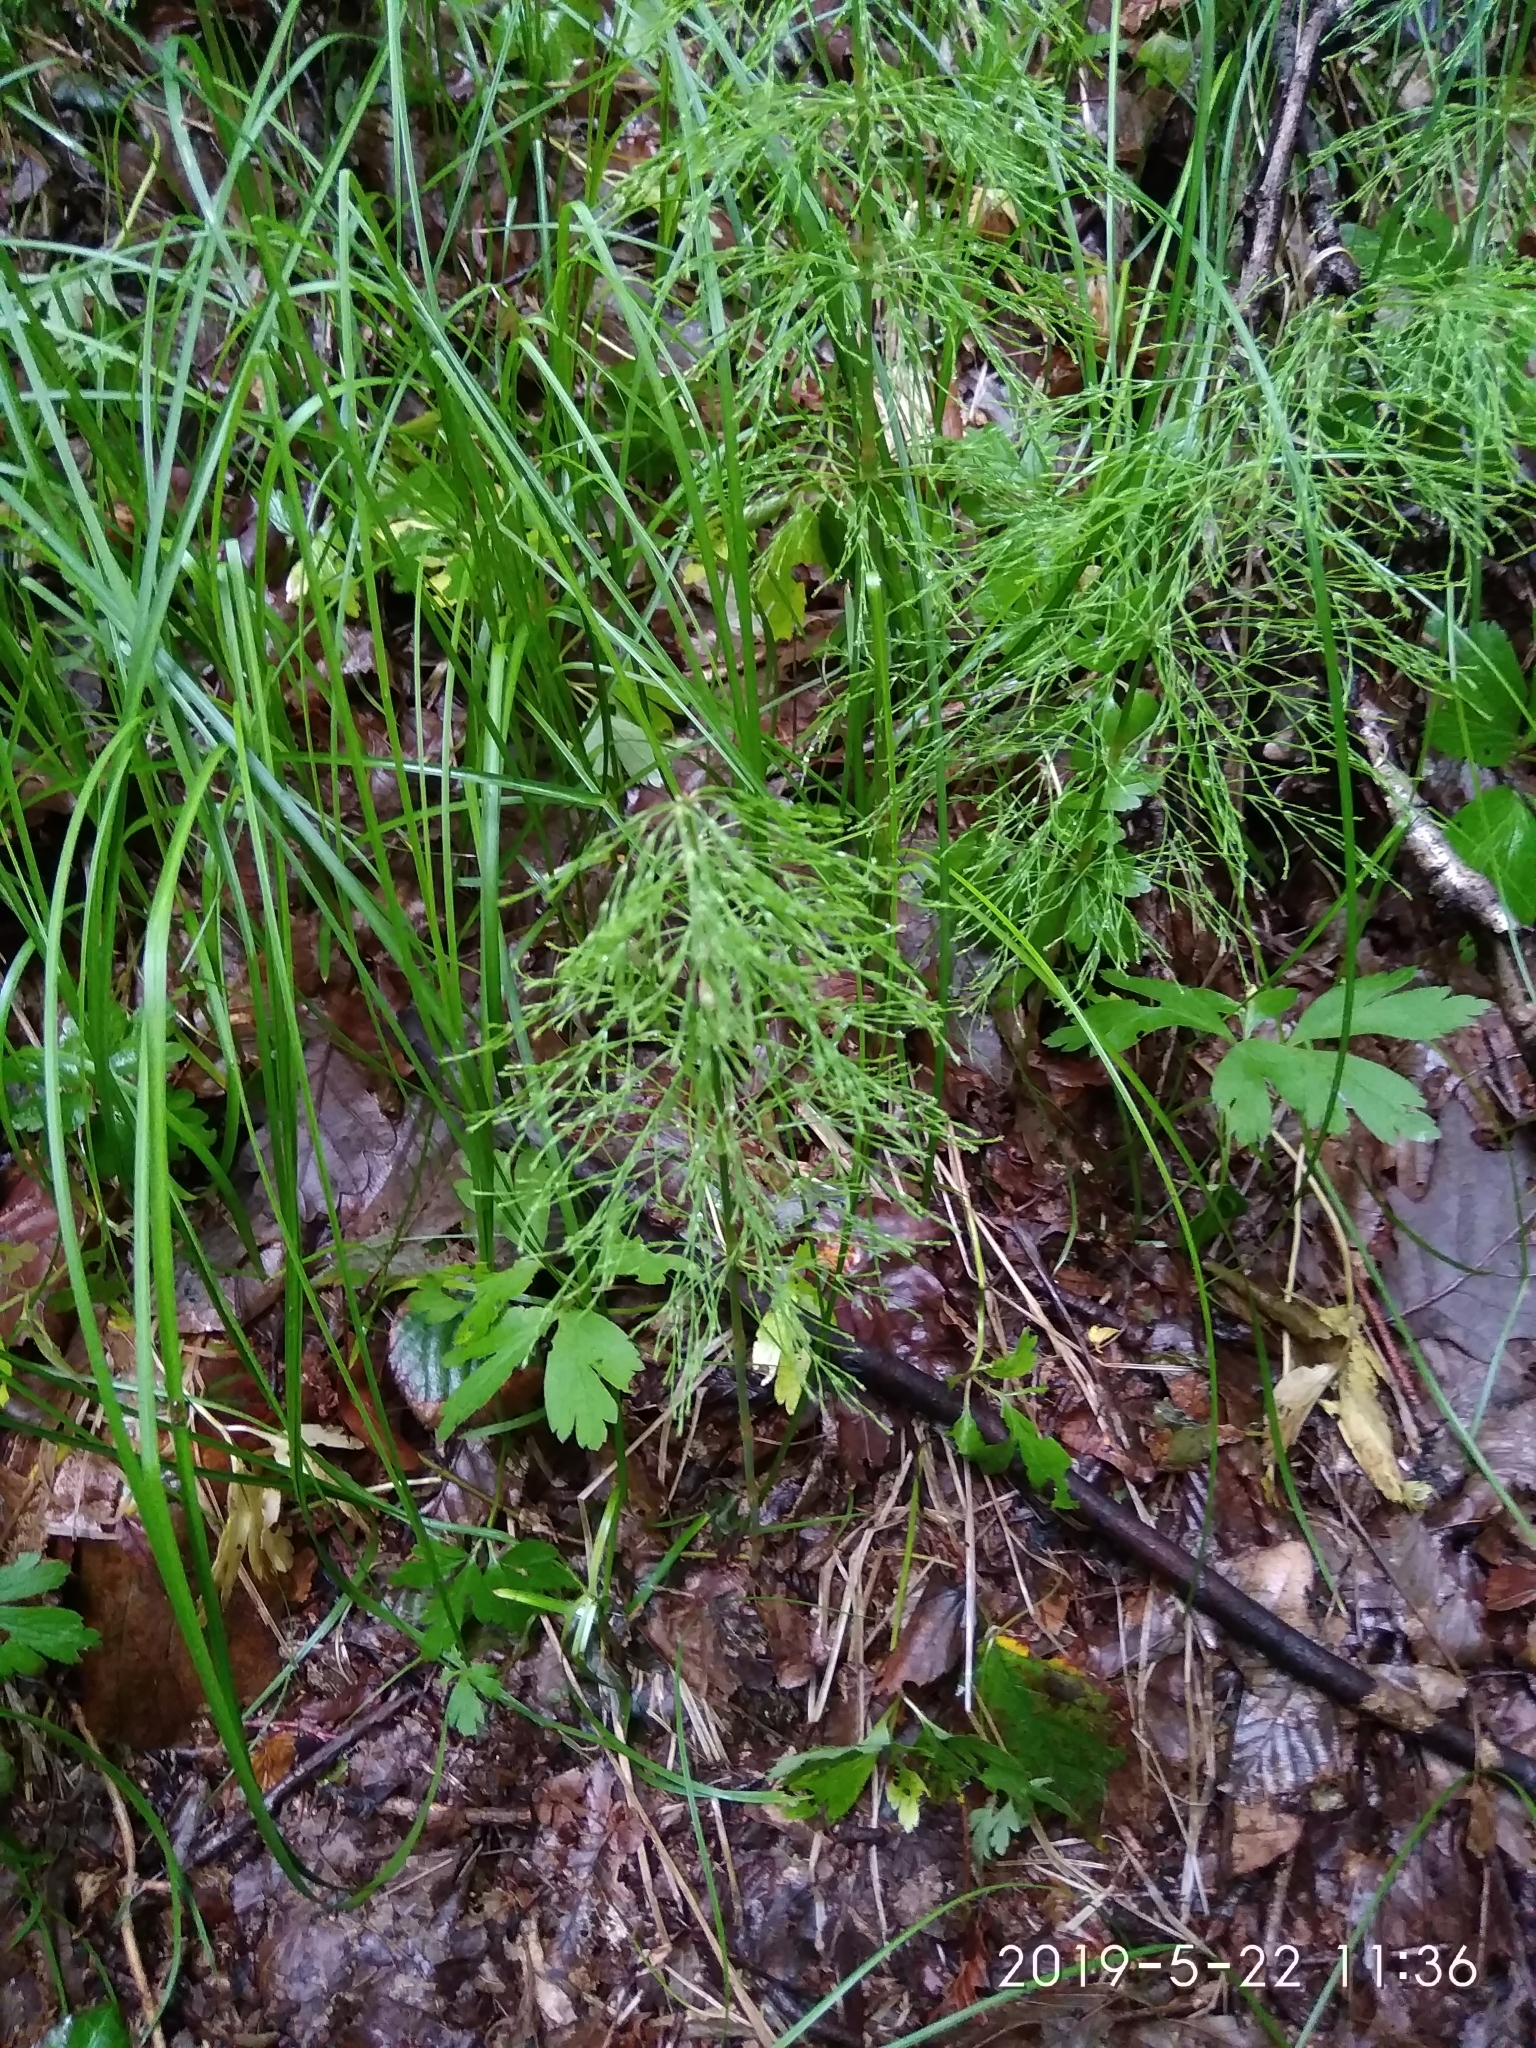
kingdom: Plantae
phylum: Tracheophyta
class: Polypodiopsida
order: Equisetales
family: Equisetaceae
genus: Equisetum
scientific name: Equisetum sylvaticum
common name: Wood horsetail
